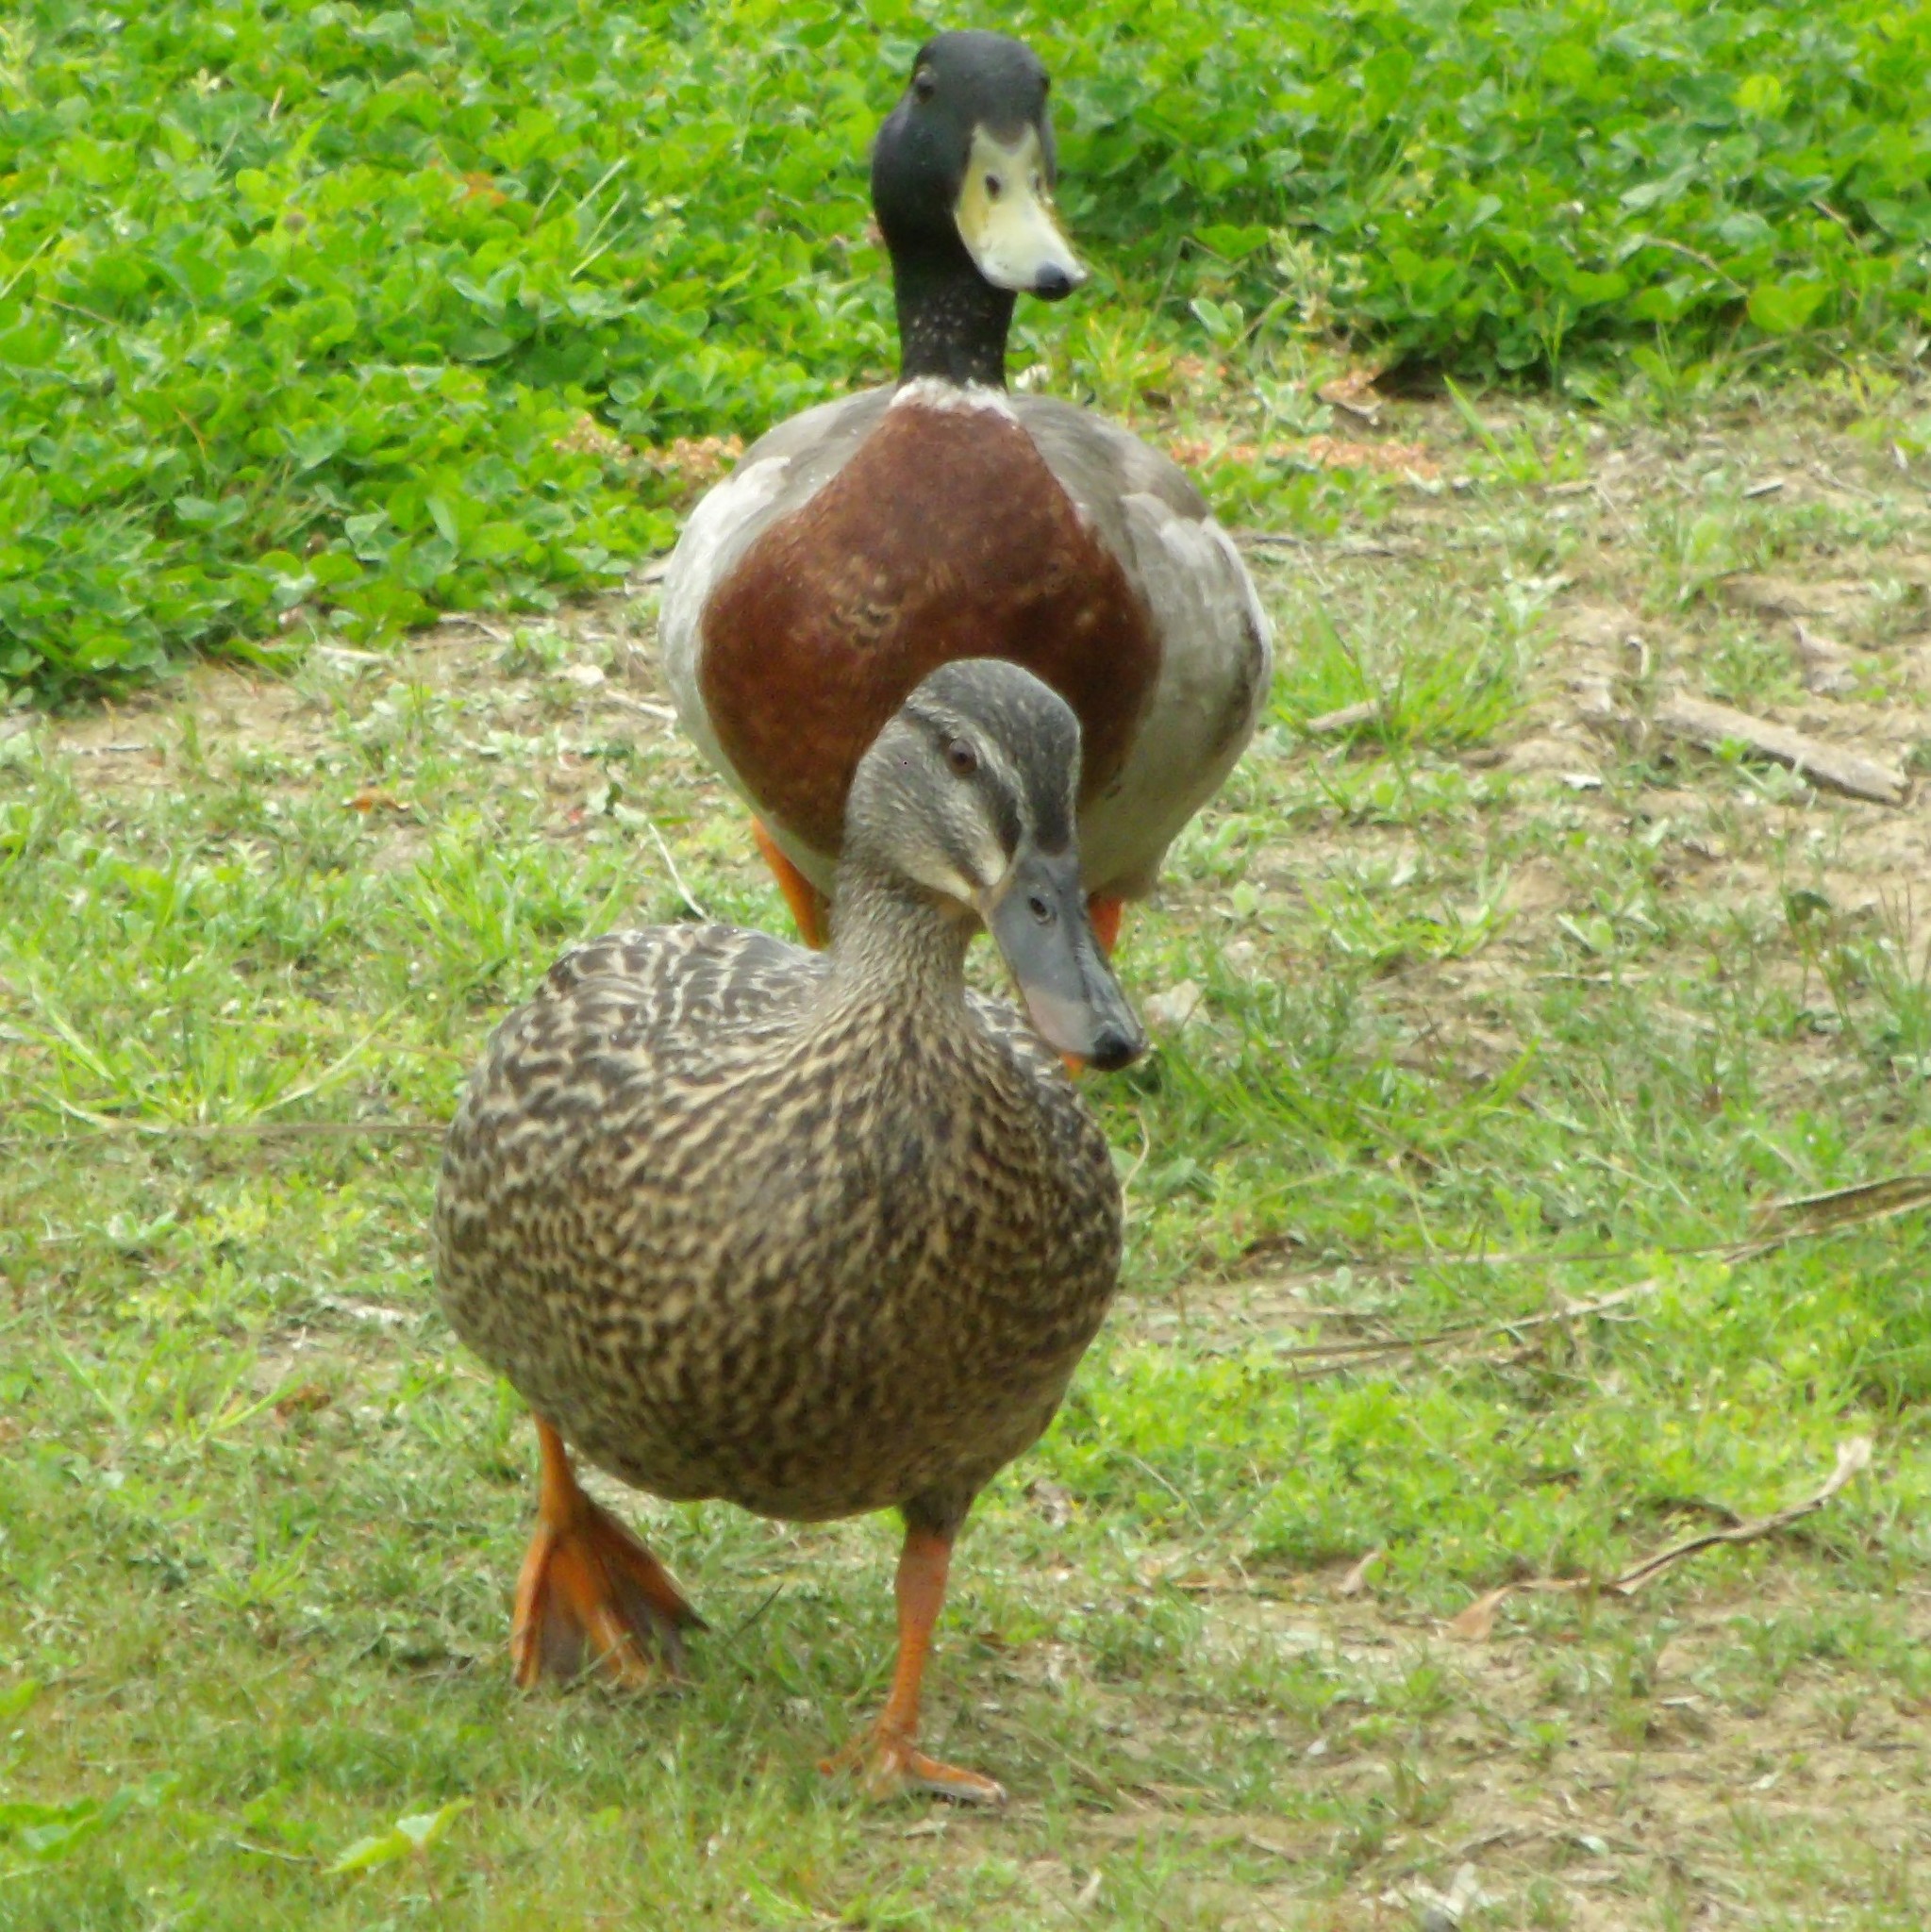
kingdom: Animalia
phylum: Chordata
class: Aves
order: Anseriformes
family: Anatidae
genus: Anas
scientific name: Anas platyrhynchos
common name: Mallard
